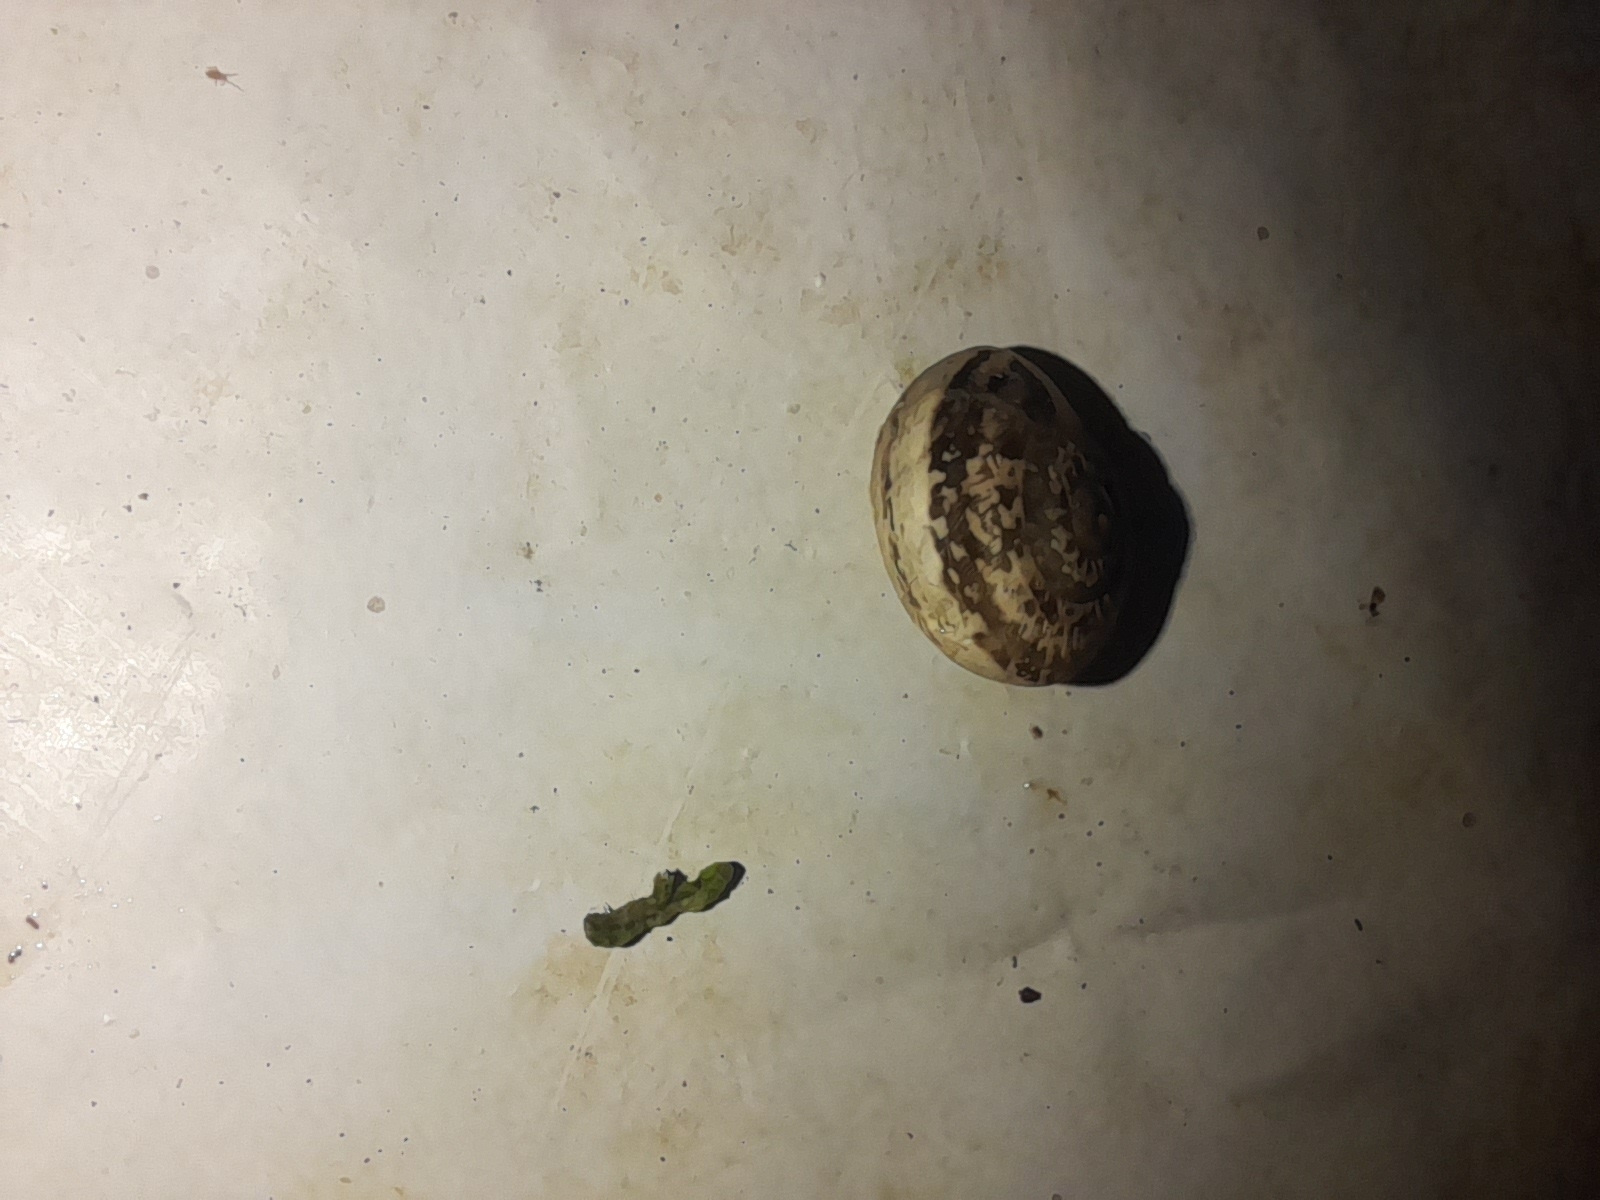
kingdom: Animalia
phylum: Mollusca
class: Gastropoda
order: Stylommatophora
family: Helicidae
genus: Eobania
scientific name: Eobania vermiculata
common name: Chocolateband snail
